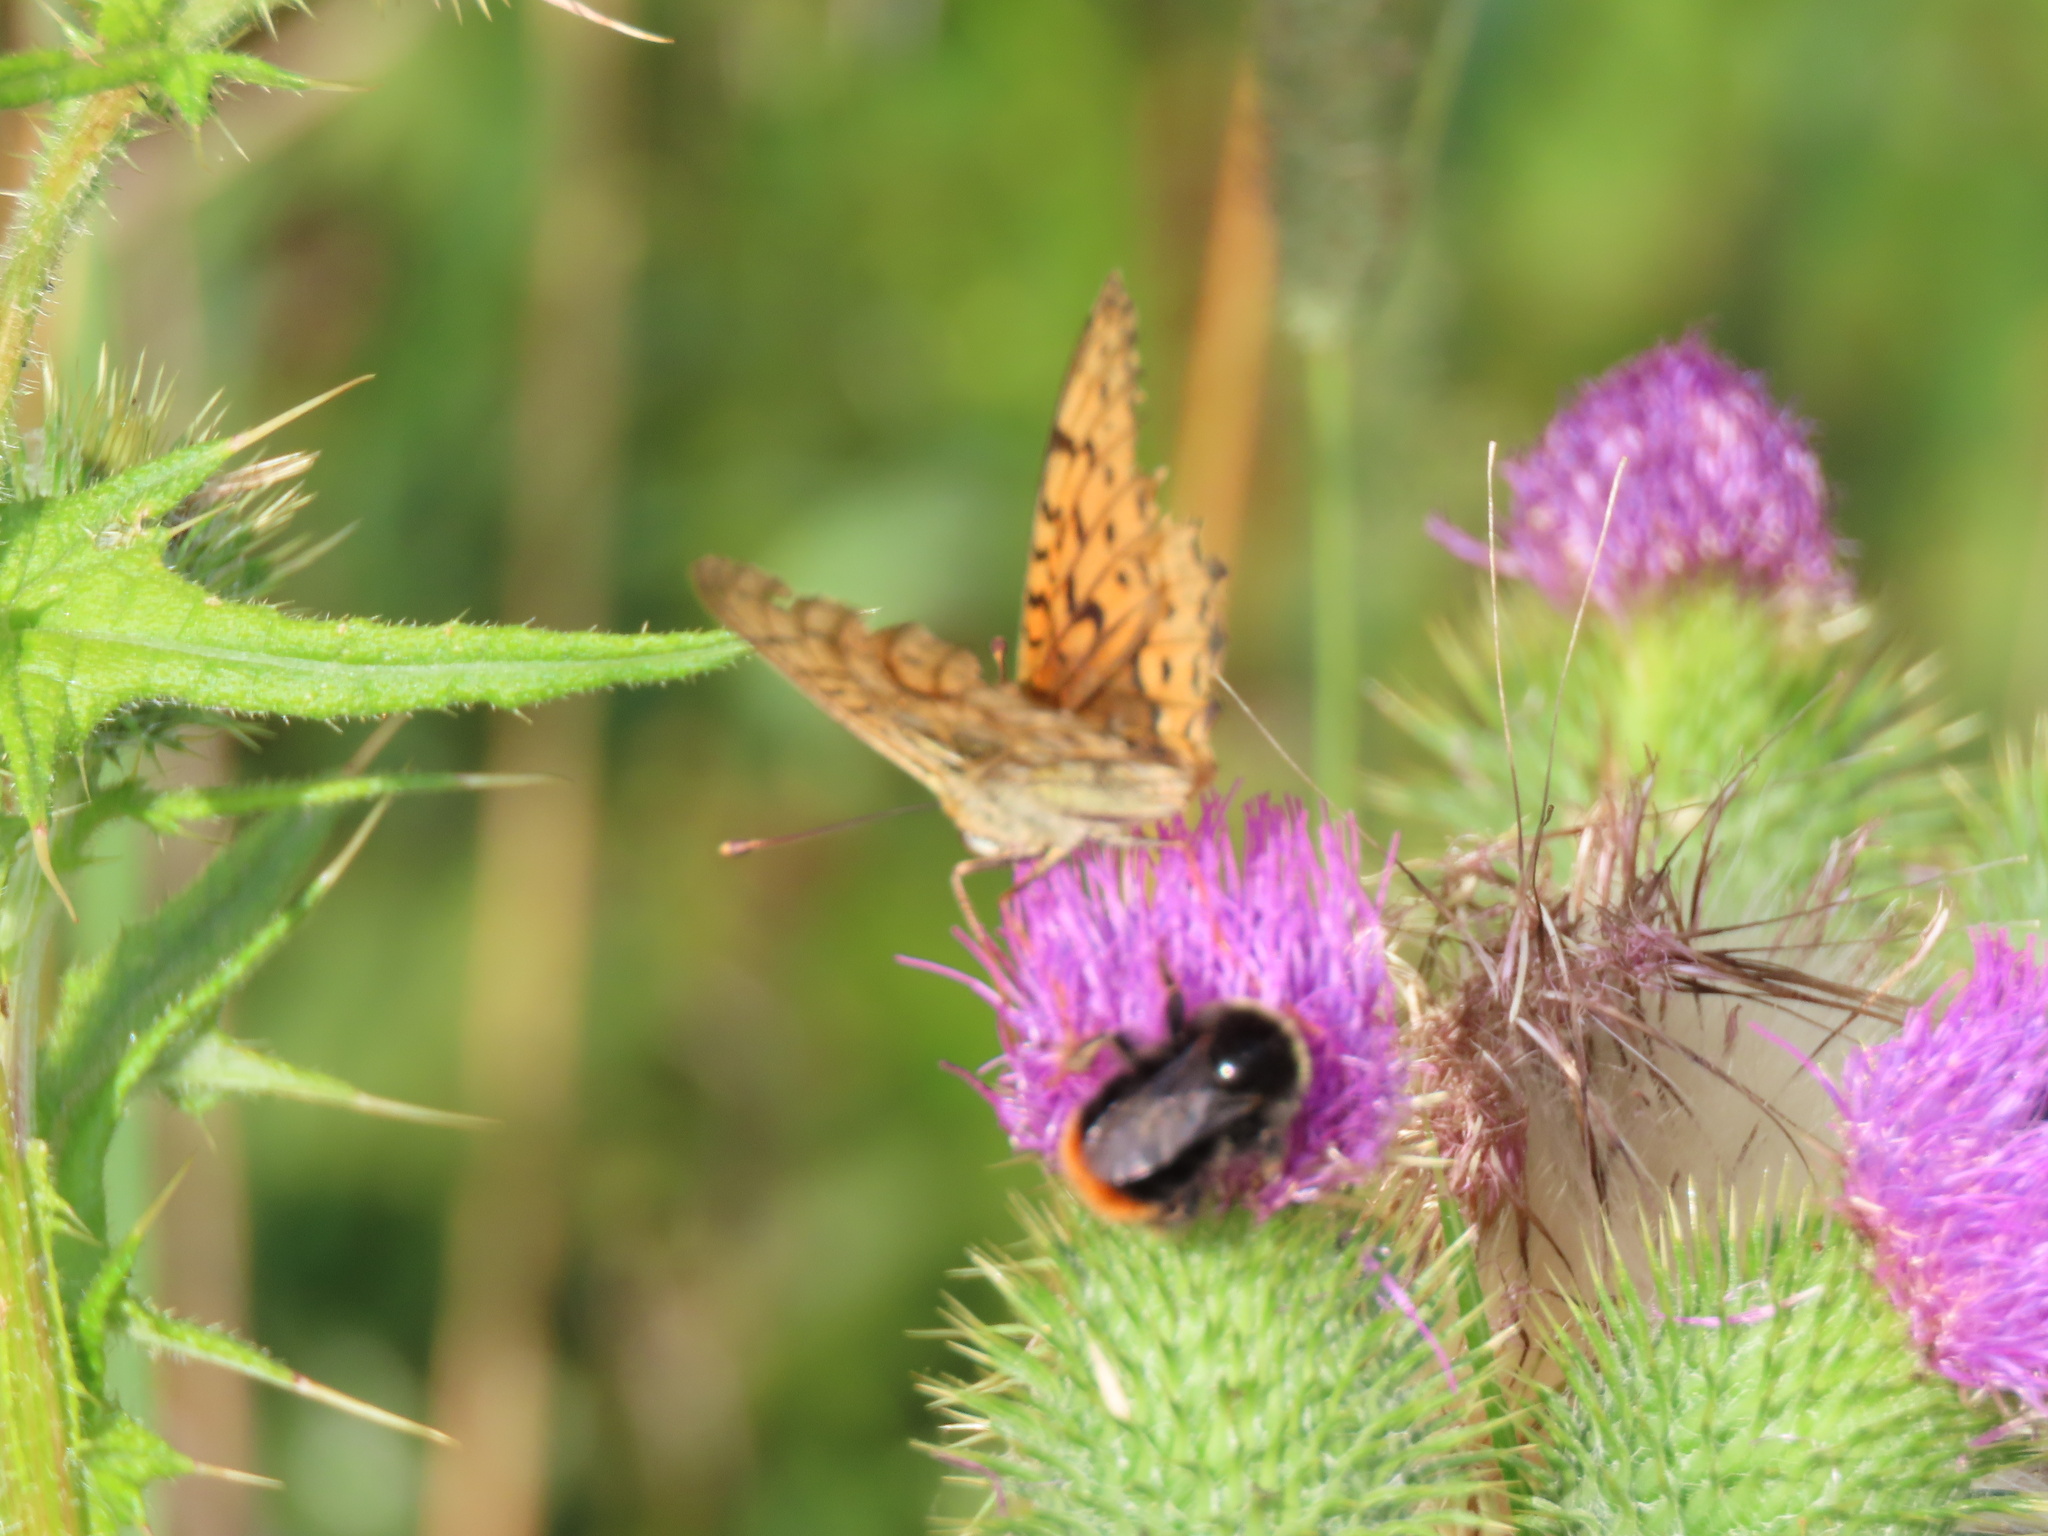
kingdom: Animalia
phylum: Arthropoda
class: Insecta
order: Lepidoptera
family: Nymphalidae
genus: Speyeria
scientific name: Speyeria aglaja
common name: Dark green fritillary
